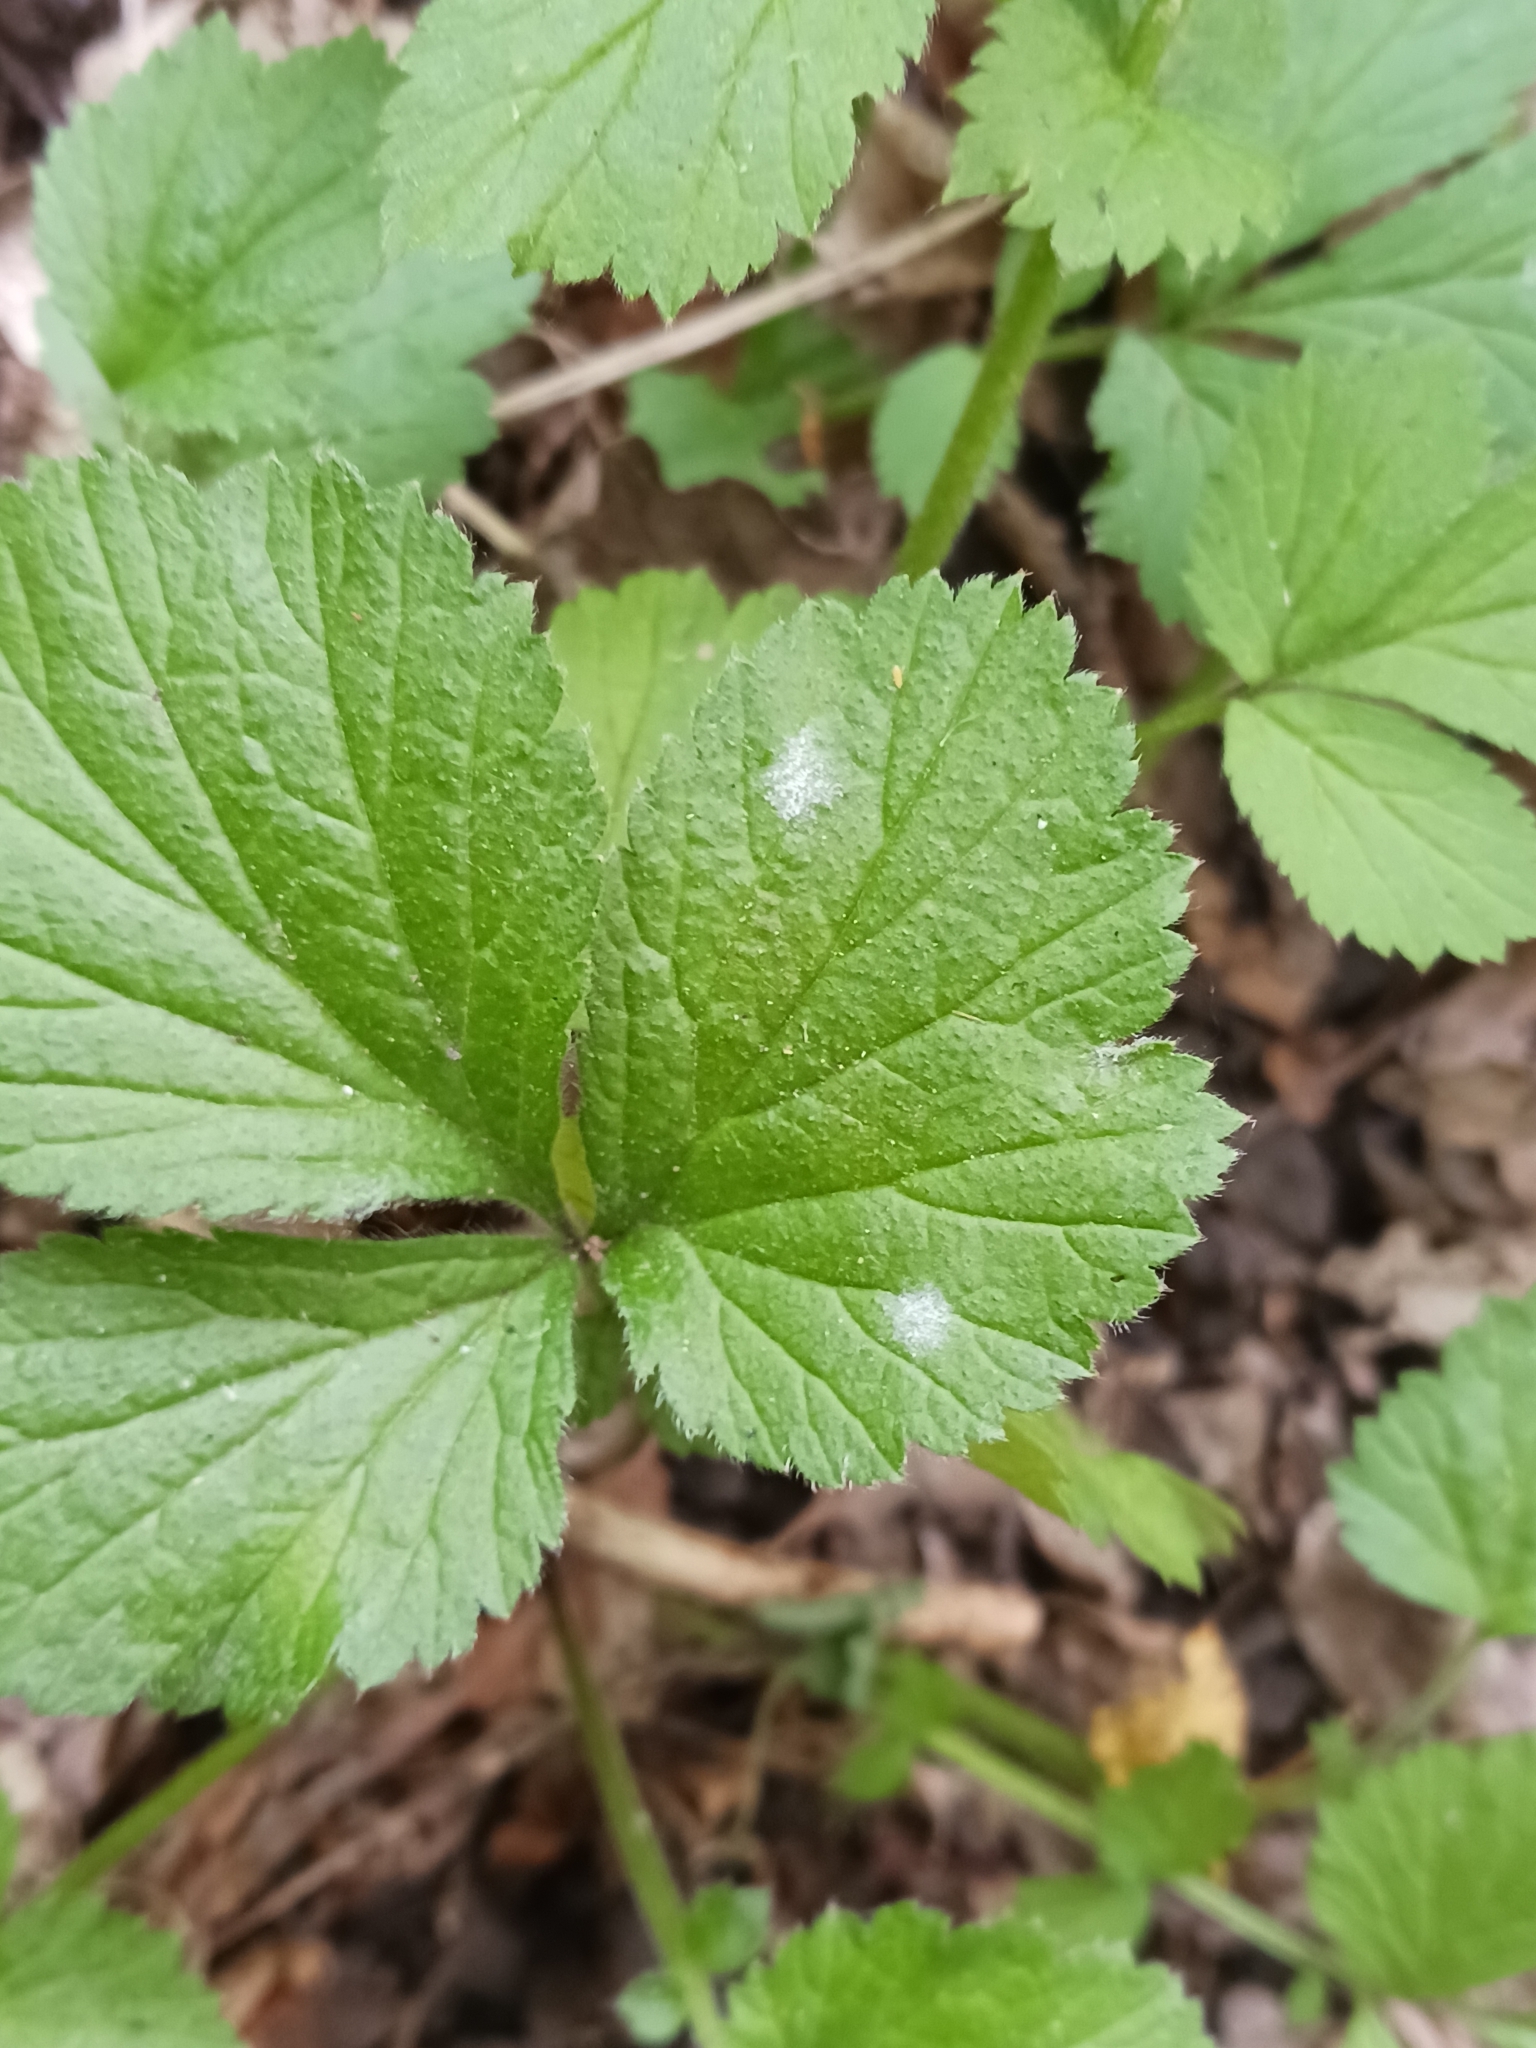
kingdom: Fungi
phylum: Ascomycota
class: Leotiomycetes
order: Helotiales
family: Erysiphaceae
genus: Podosphaera
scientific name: Podosphaera aphanis
